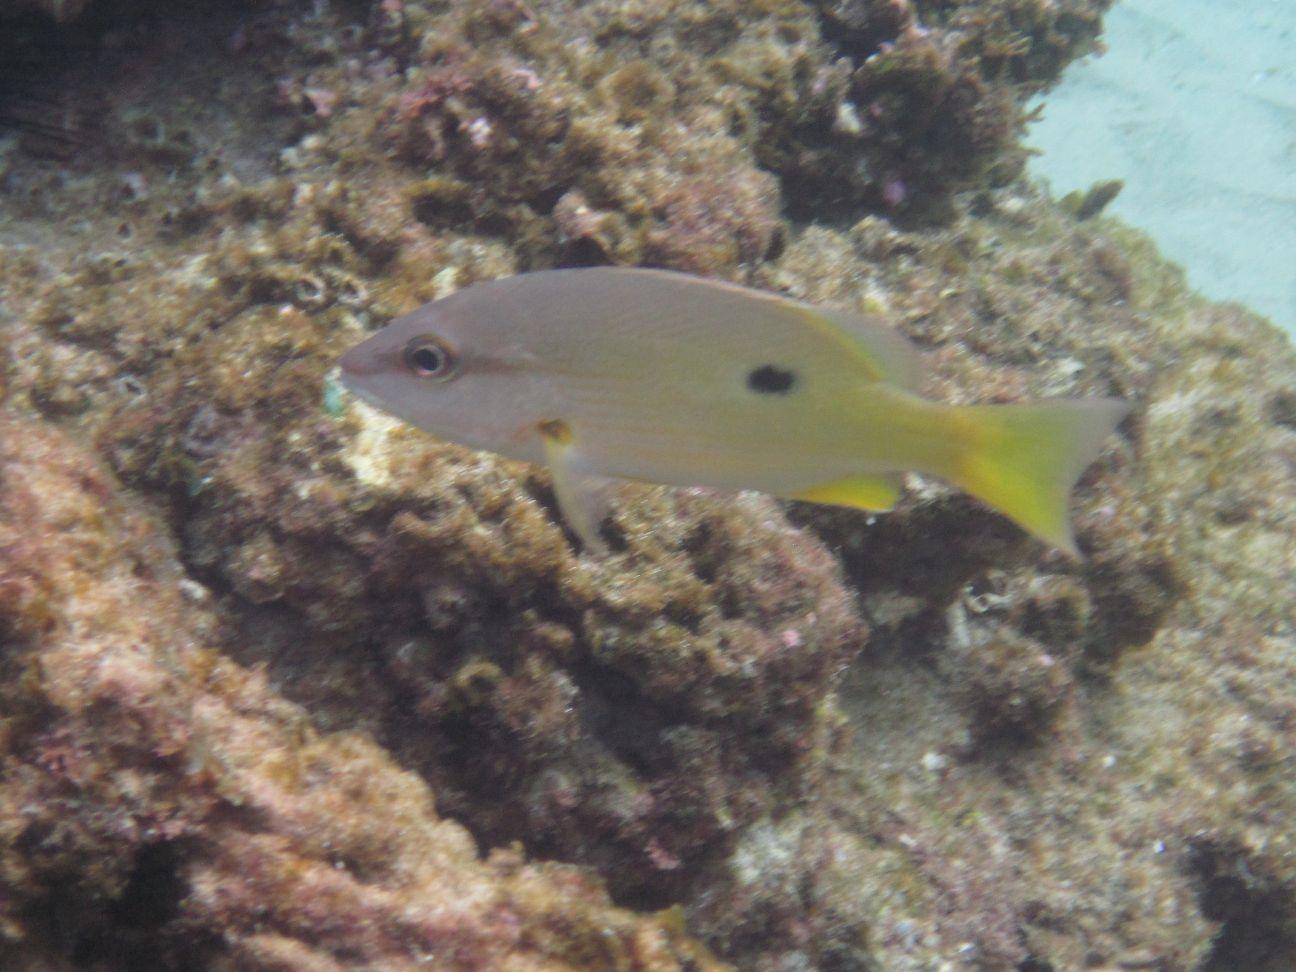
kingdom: Animalia
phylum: Chordata
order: Perciformes
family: Lutjanidae
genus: Lutjanus
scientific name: Lutjanus fulviflamma
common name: Blackspot snapper
